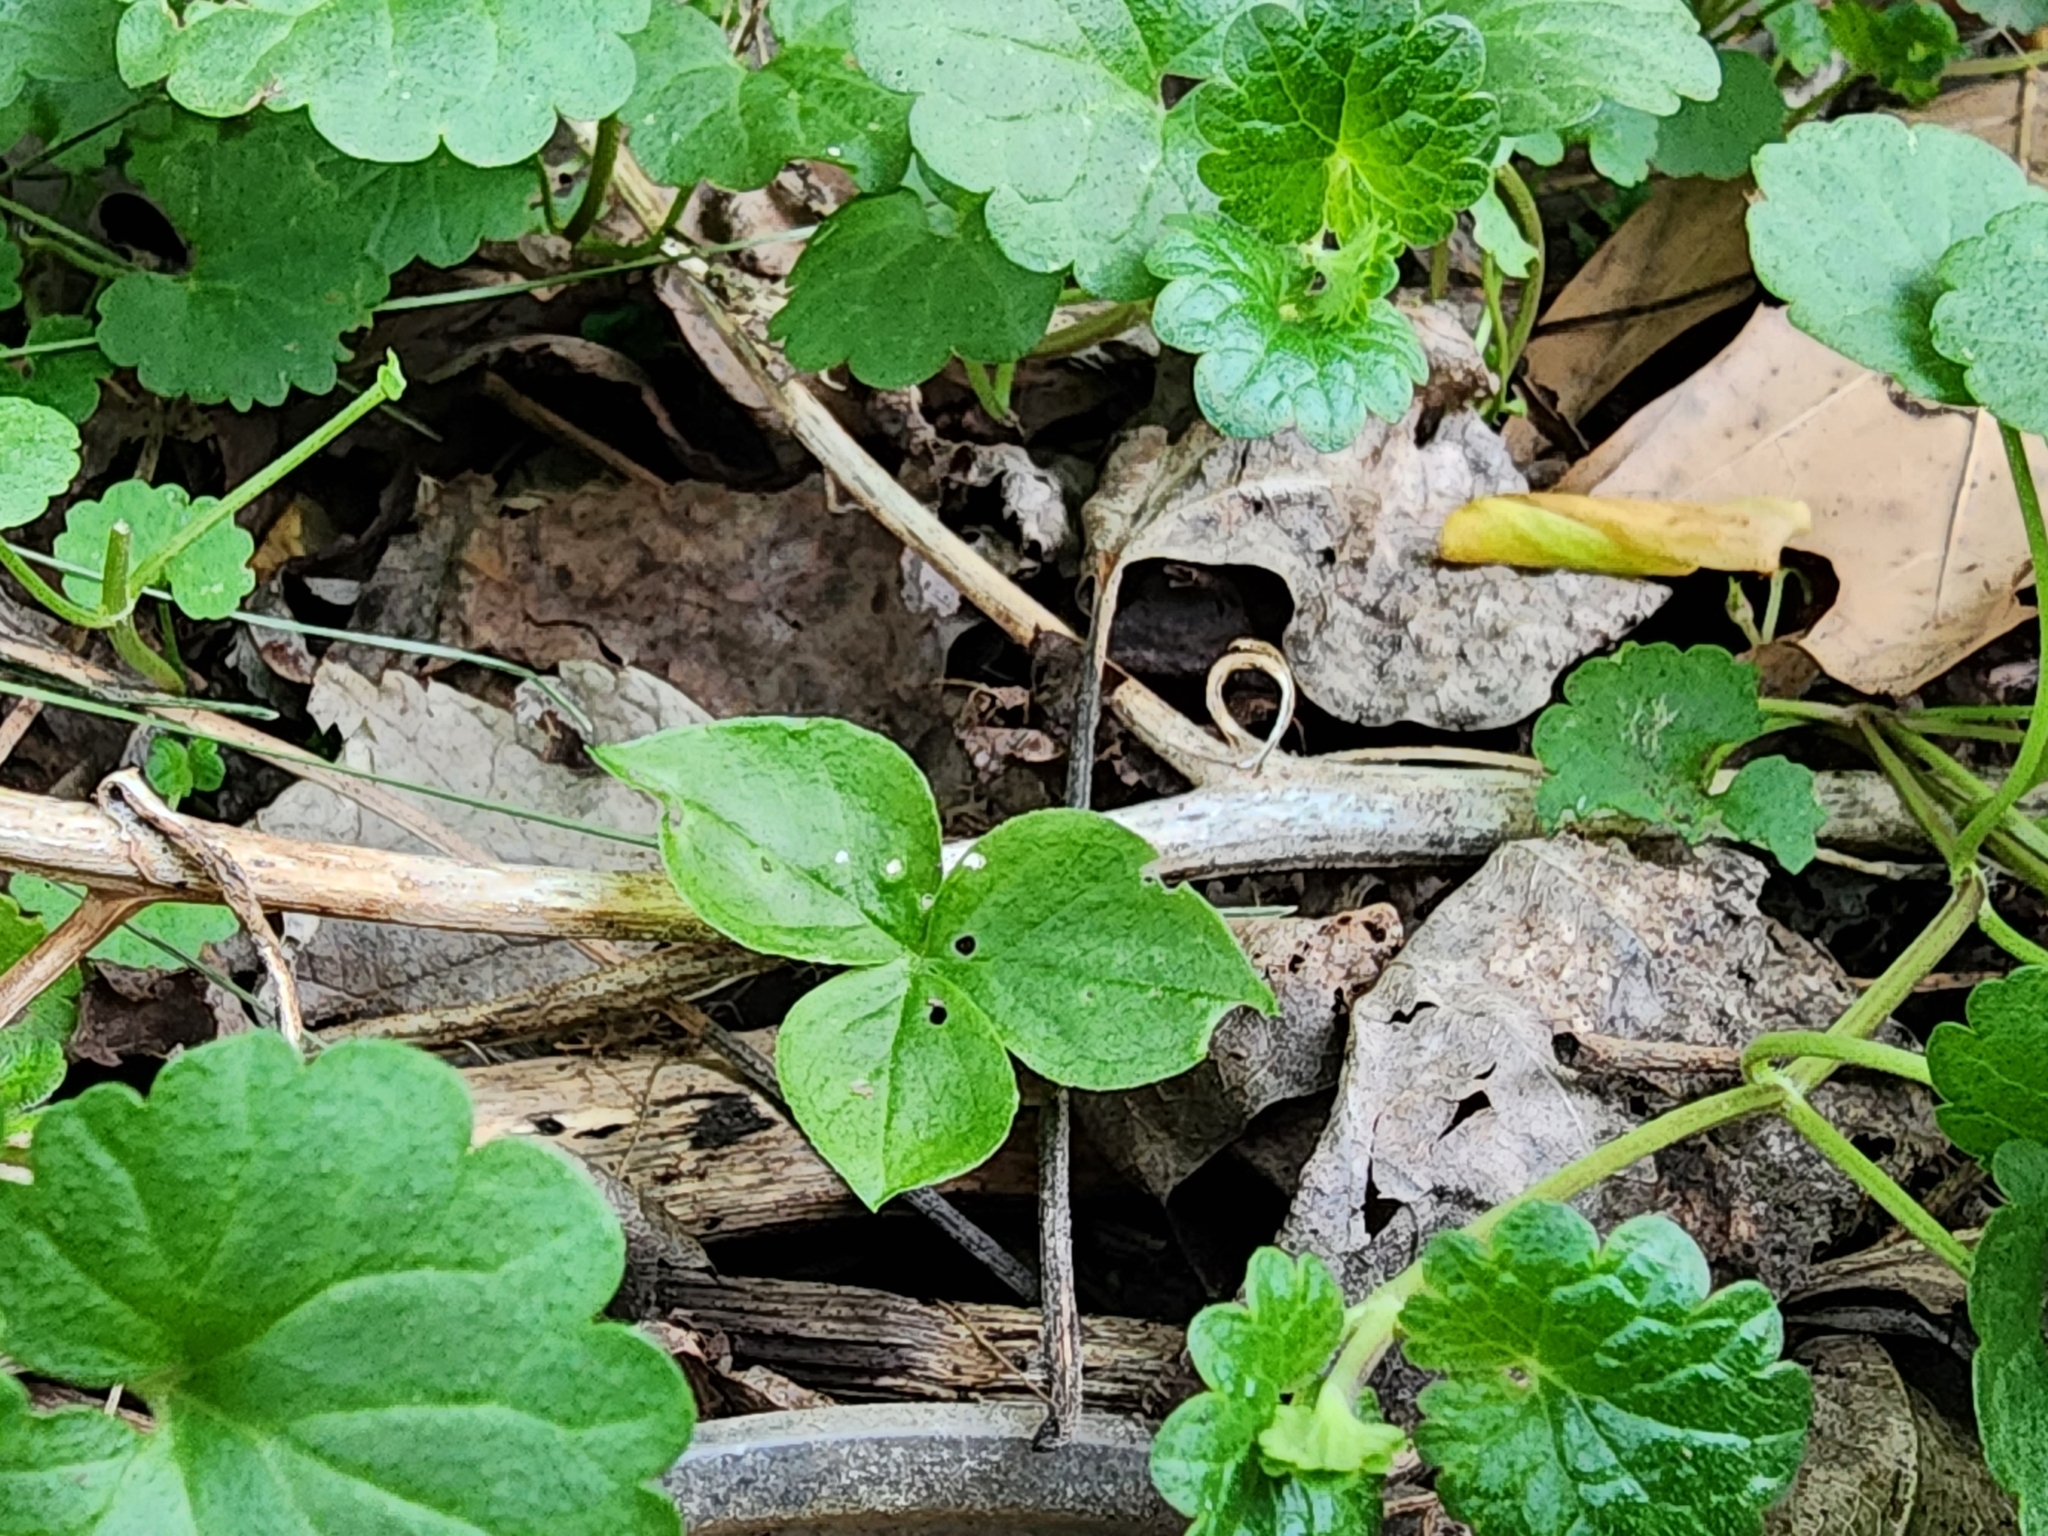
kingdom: Plantae
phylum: Tracheophyta
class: Liliopsida
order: Alismatales
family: Araceae
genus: Arisaema
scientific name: Arisaema triphyllum
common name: Jack-in-the-pulpit
